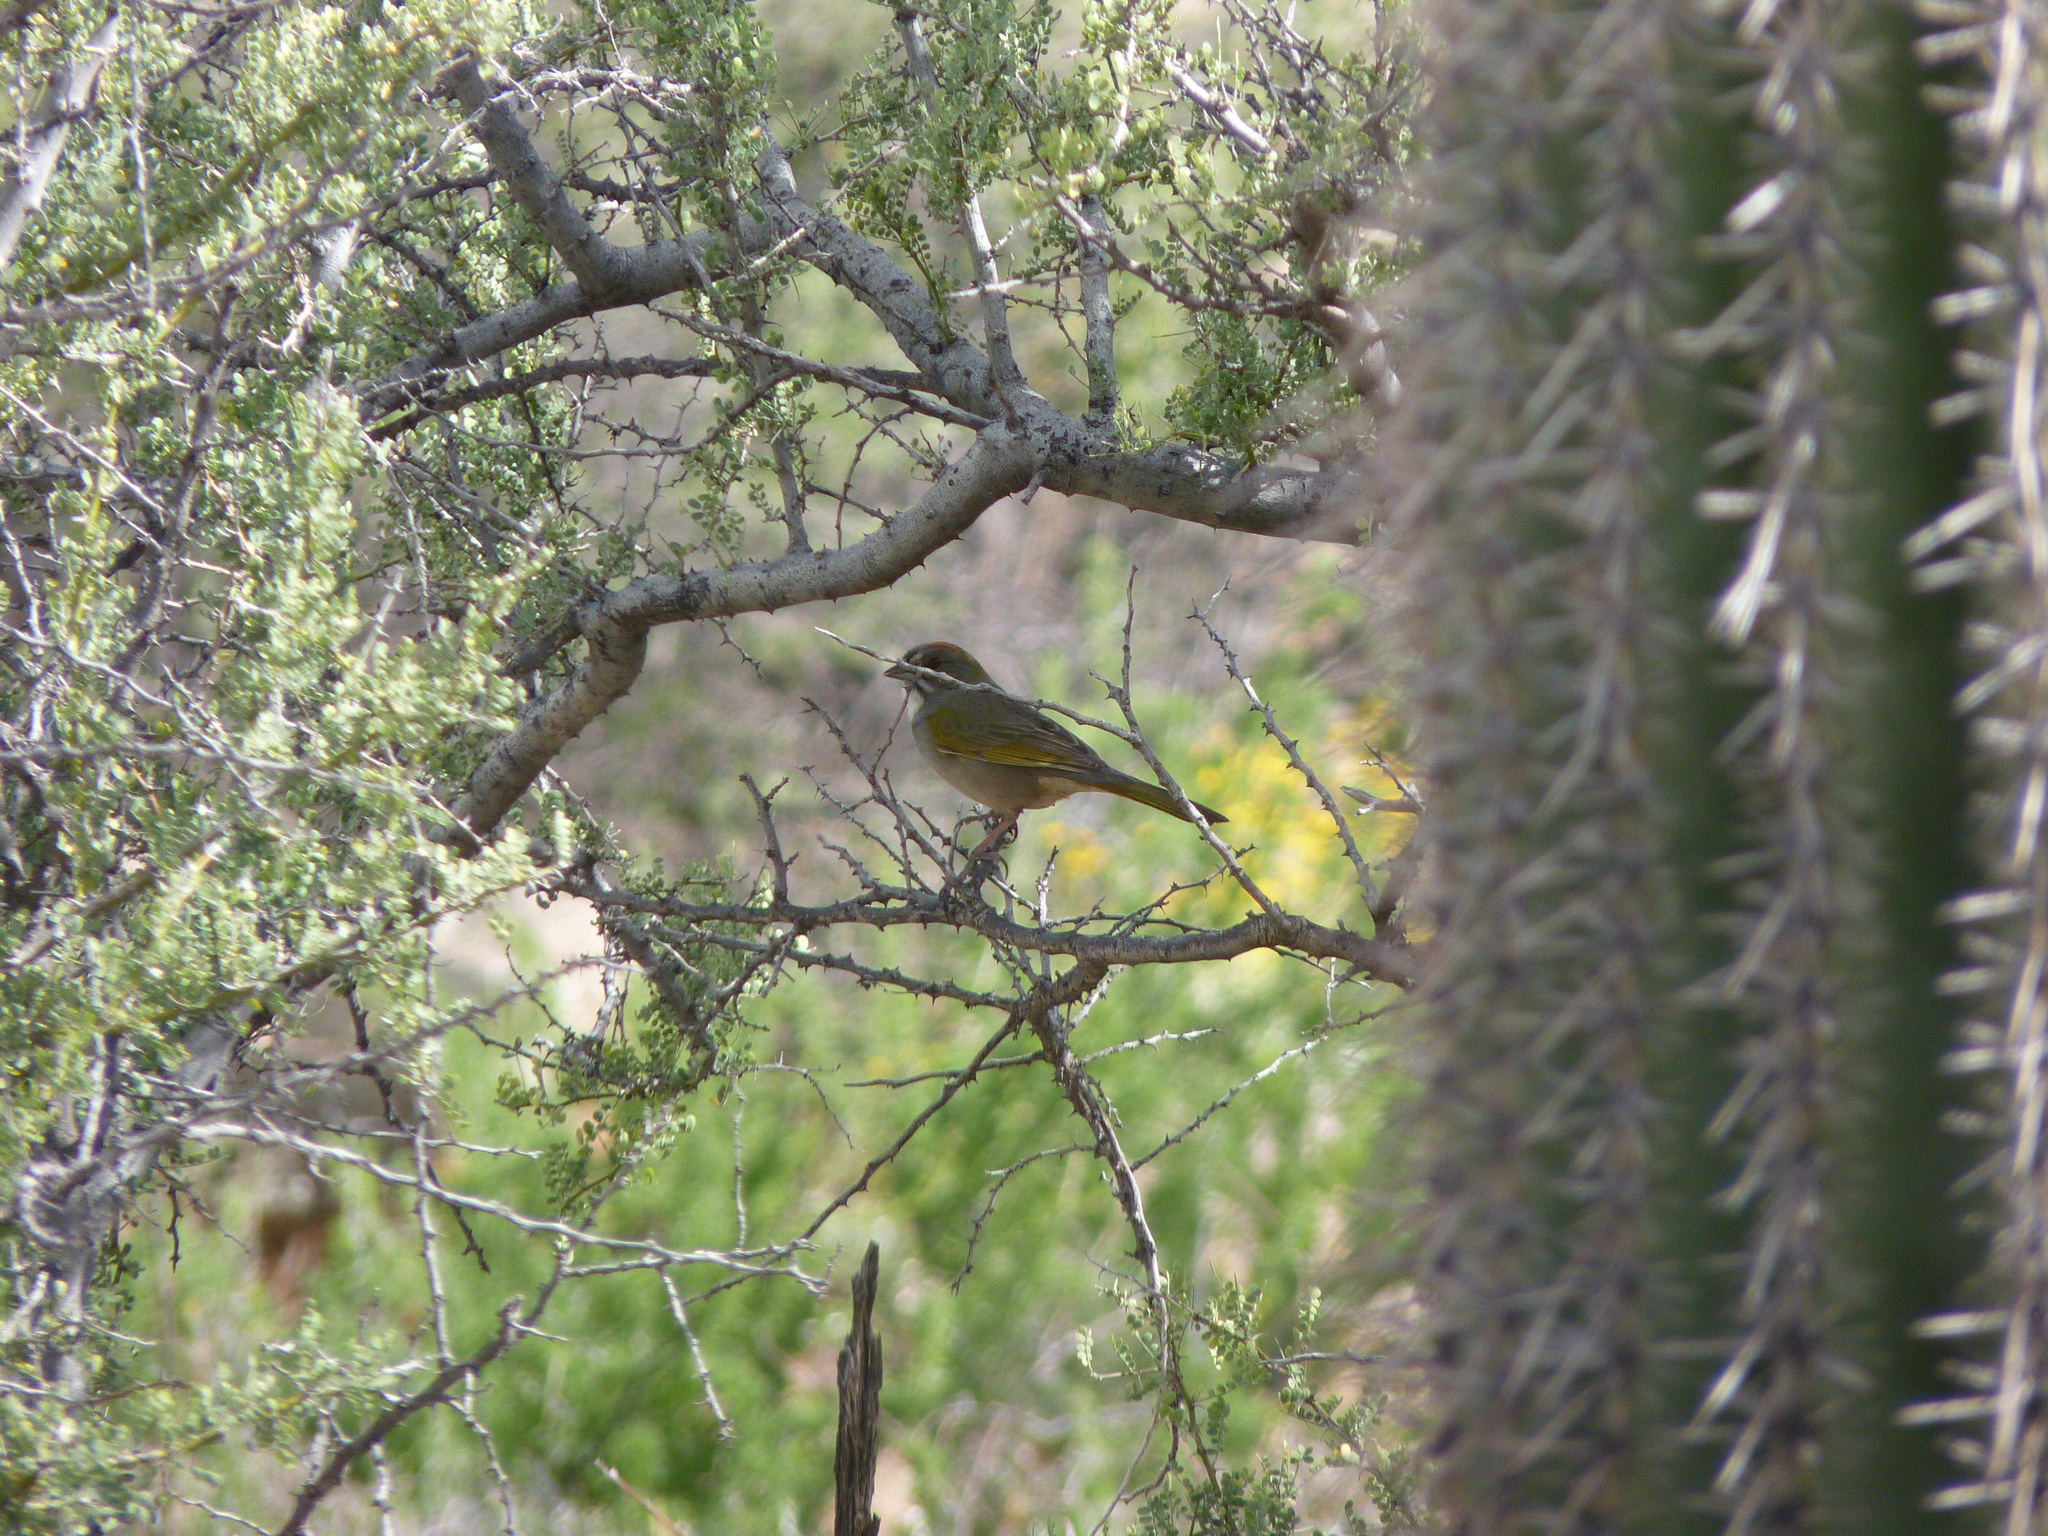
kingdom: Animalia
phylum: Chordata
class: Aves
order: Passeriformes
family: Passerellidae
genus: Pipilo
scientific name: Pipilo chlorurus
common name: Green-tailed towhee
